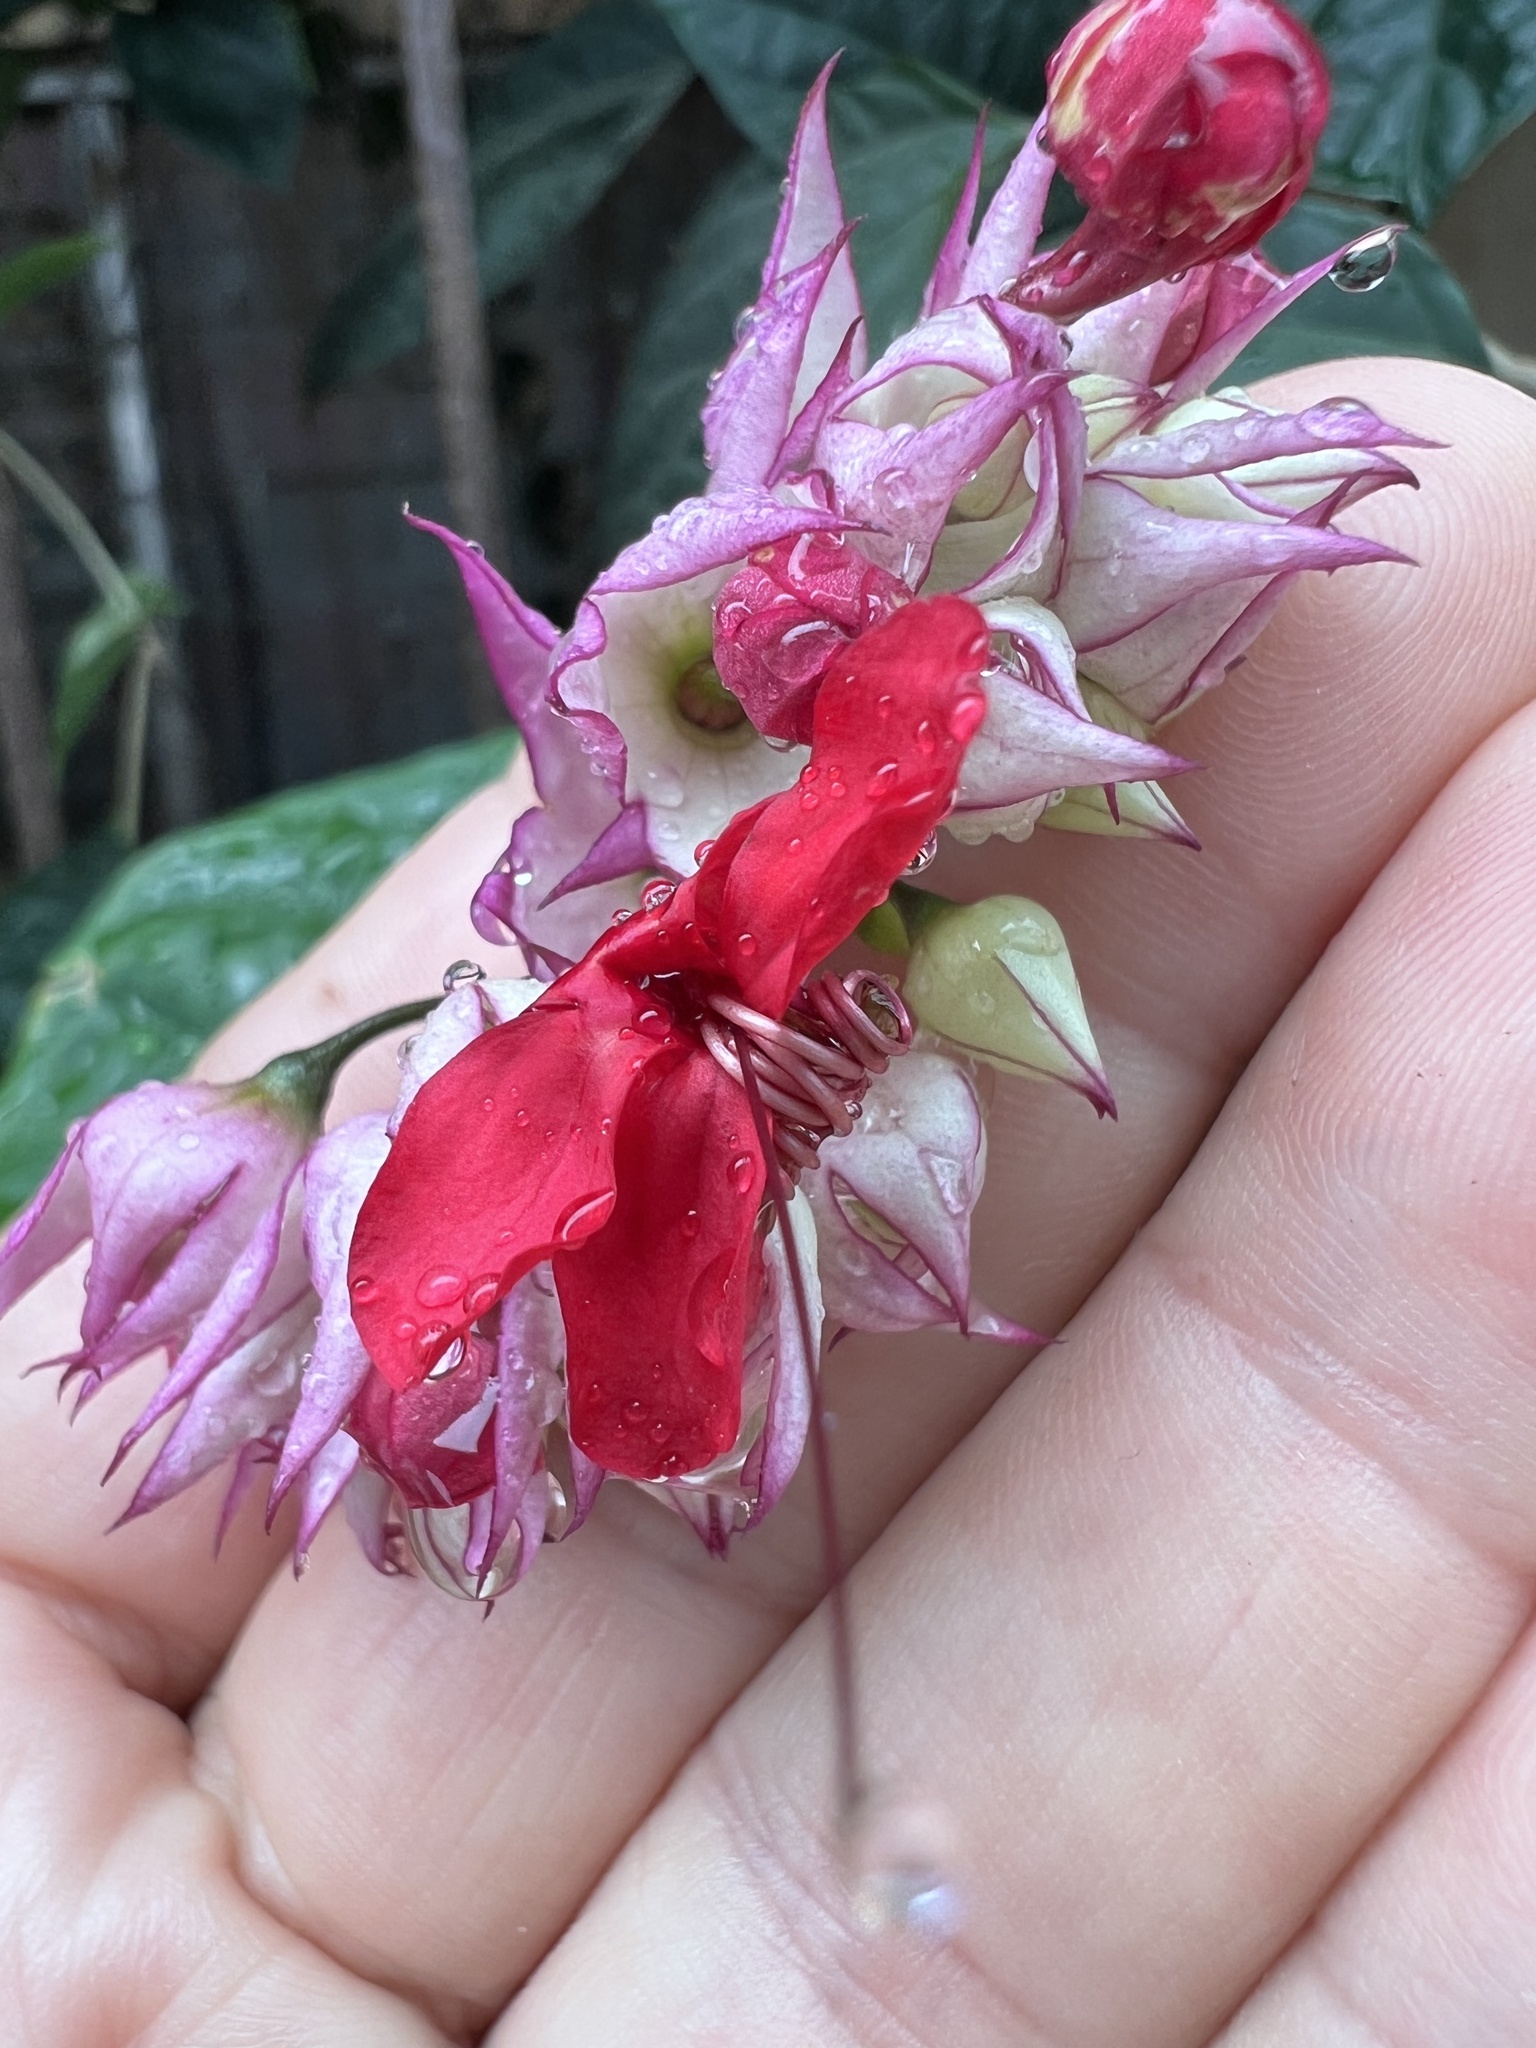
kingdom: Plantae
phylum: Tracheophyta
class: Magnoliopsida
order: Lamiales
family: Lamiaceae
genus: Clerodendrum
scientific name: Clerodendrum speciosum
